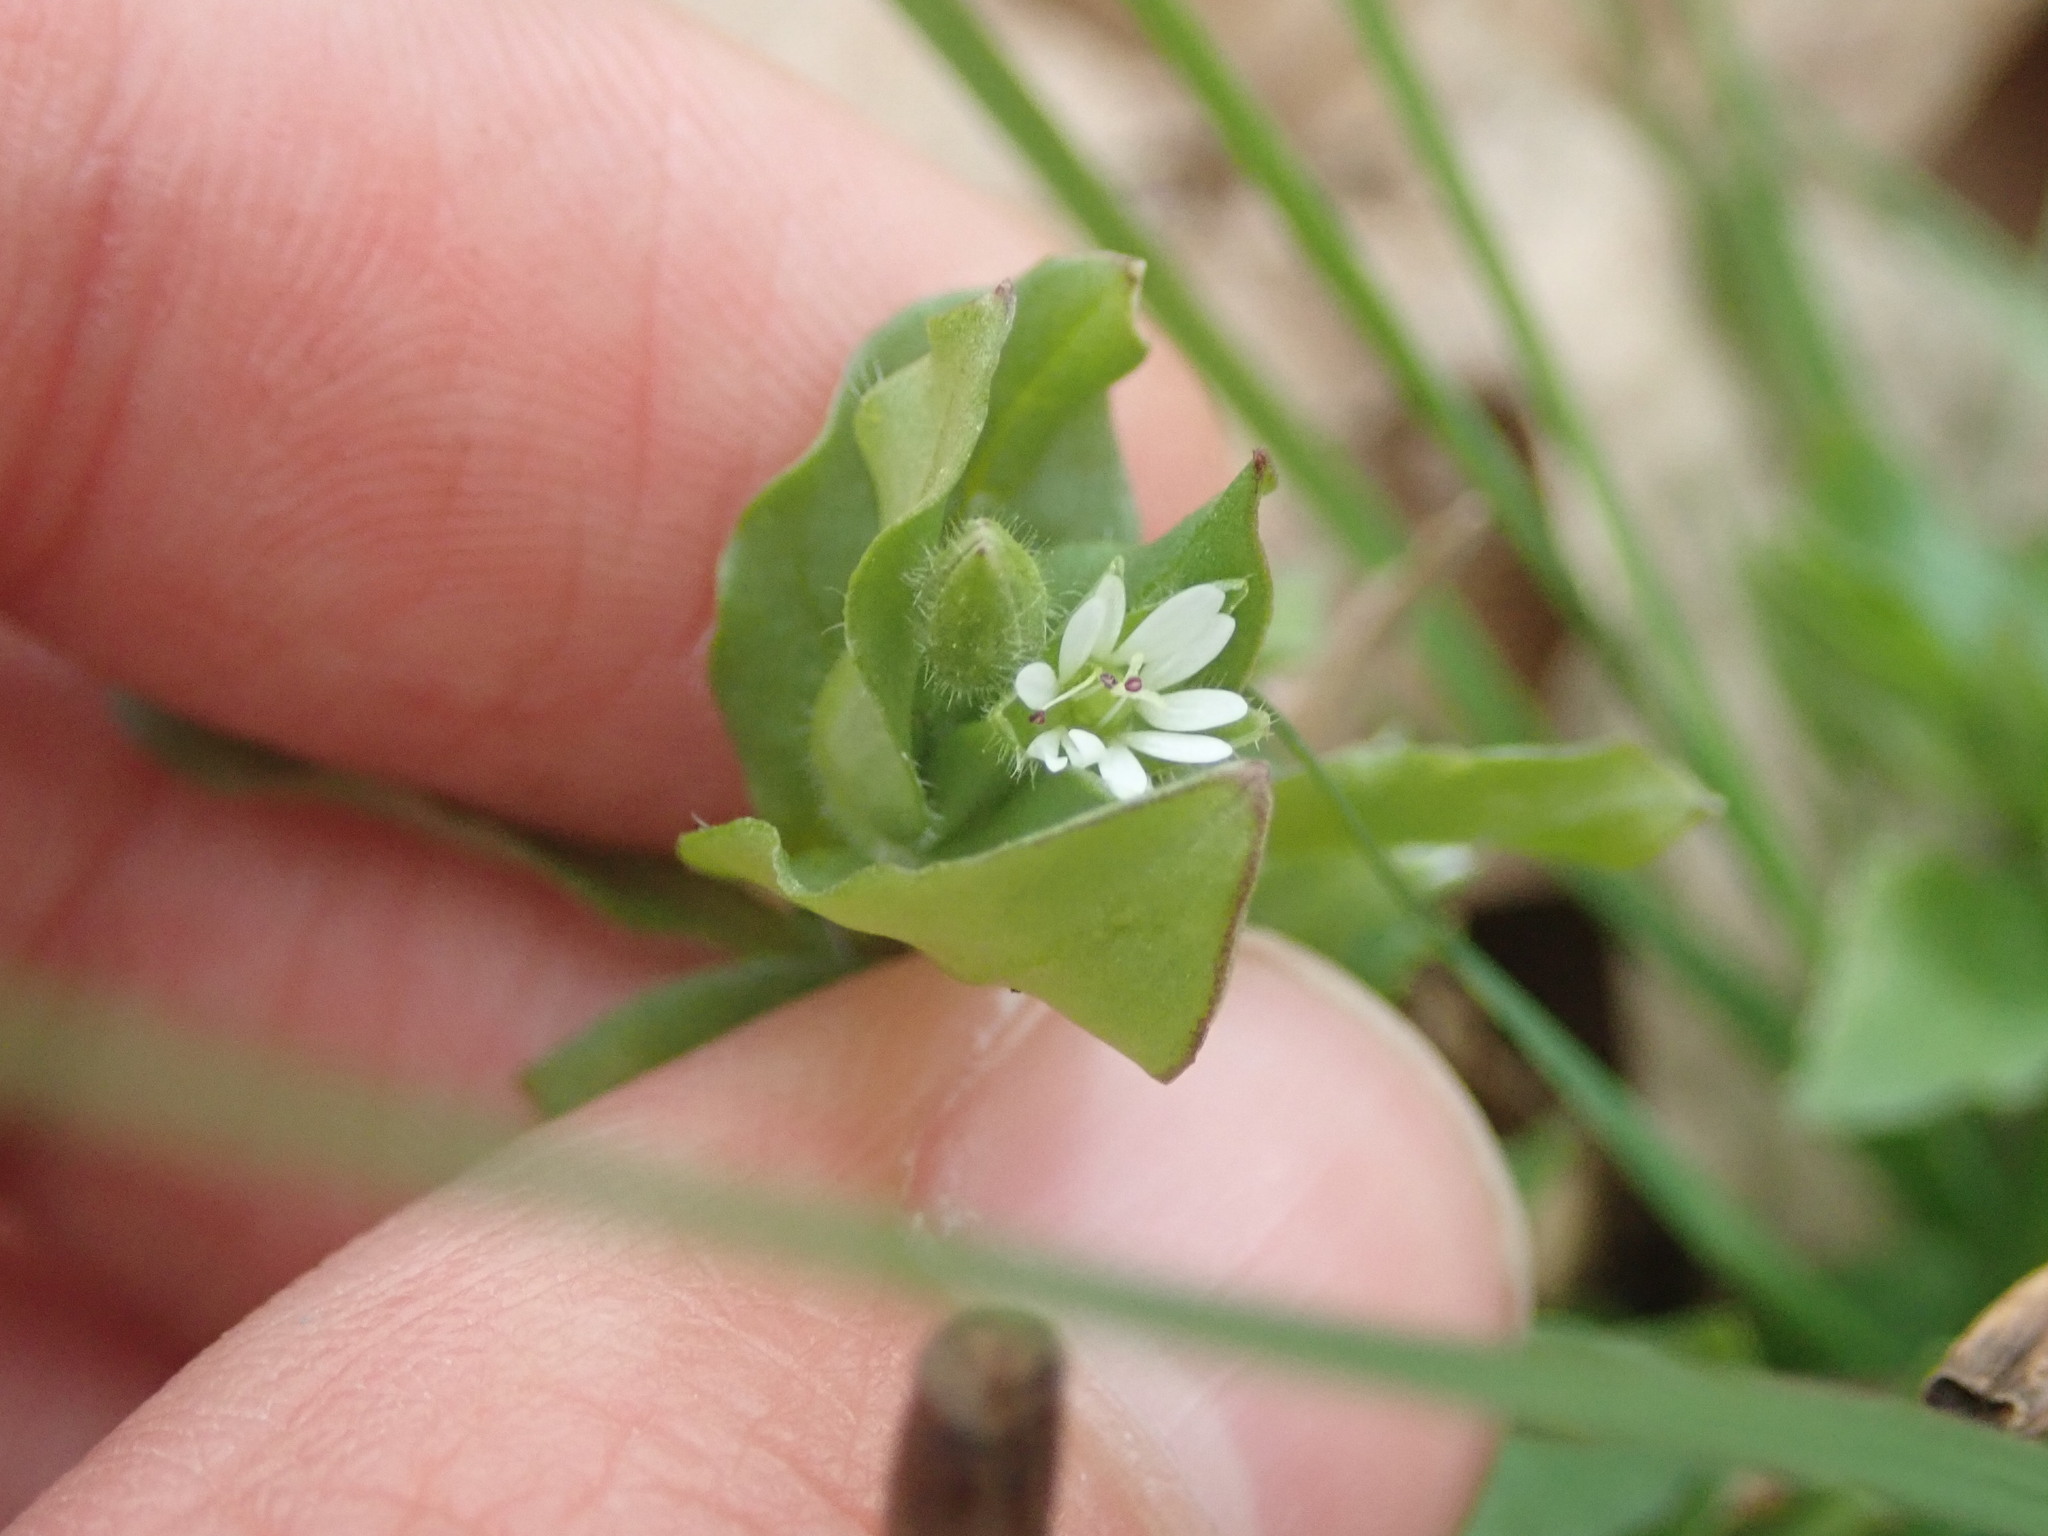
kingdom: Plantae
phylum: Tracheophyta
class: Magnoliopsida
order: Caryophyllales
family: Caryophyllaceae
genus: Stellaria
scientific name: Stellaria media
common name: Common chickweed
